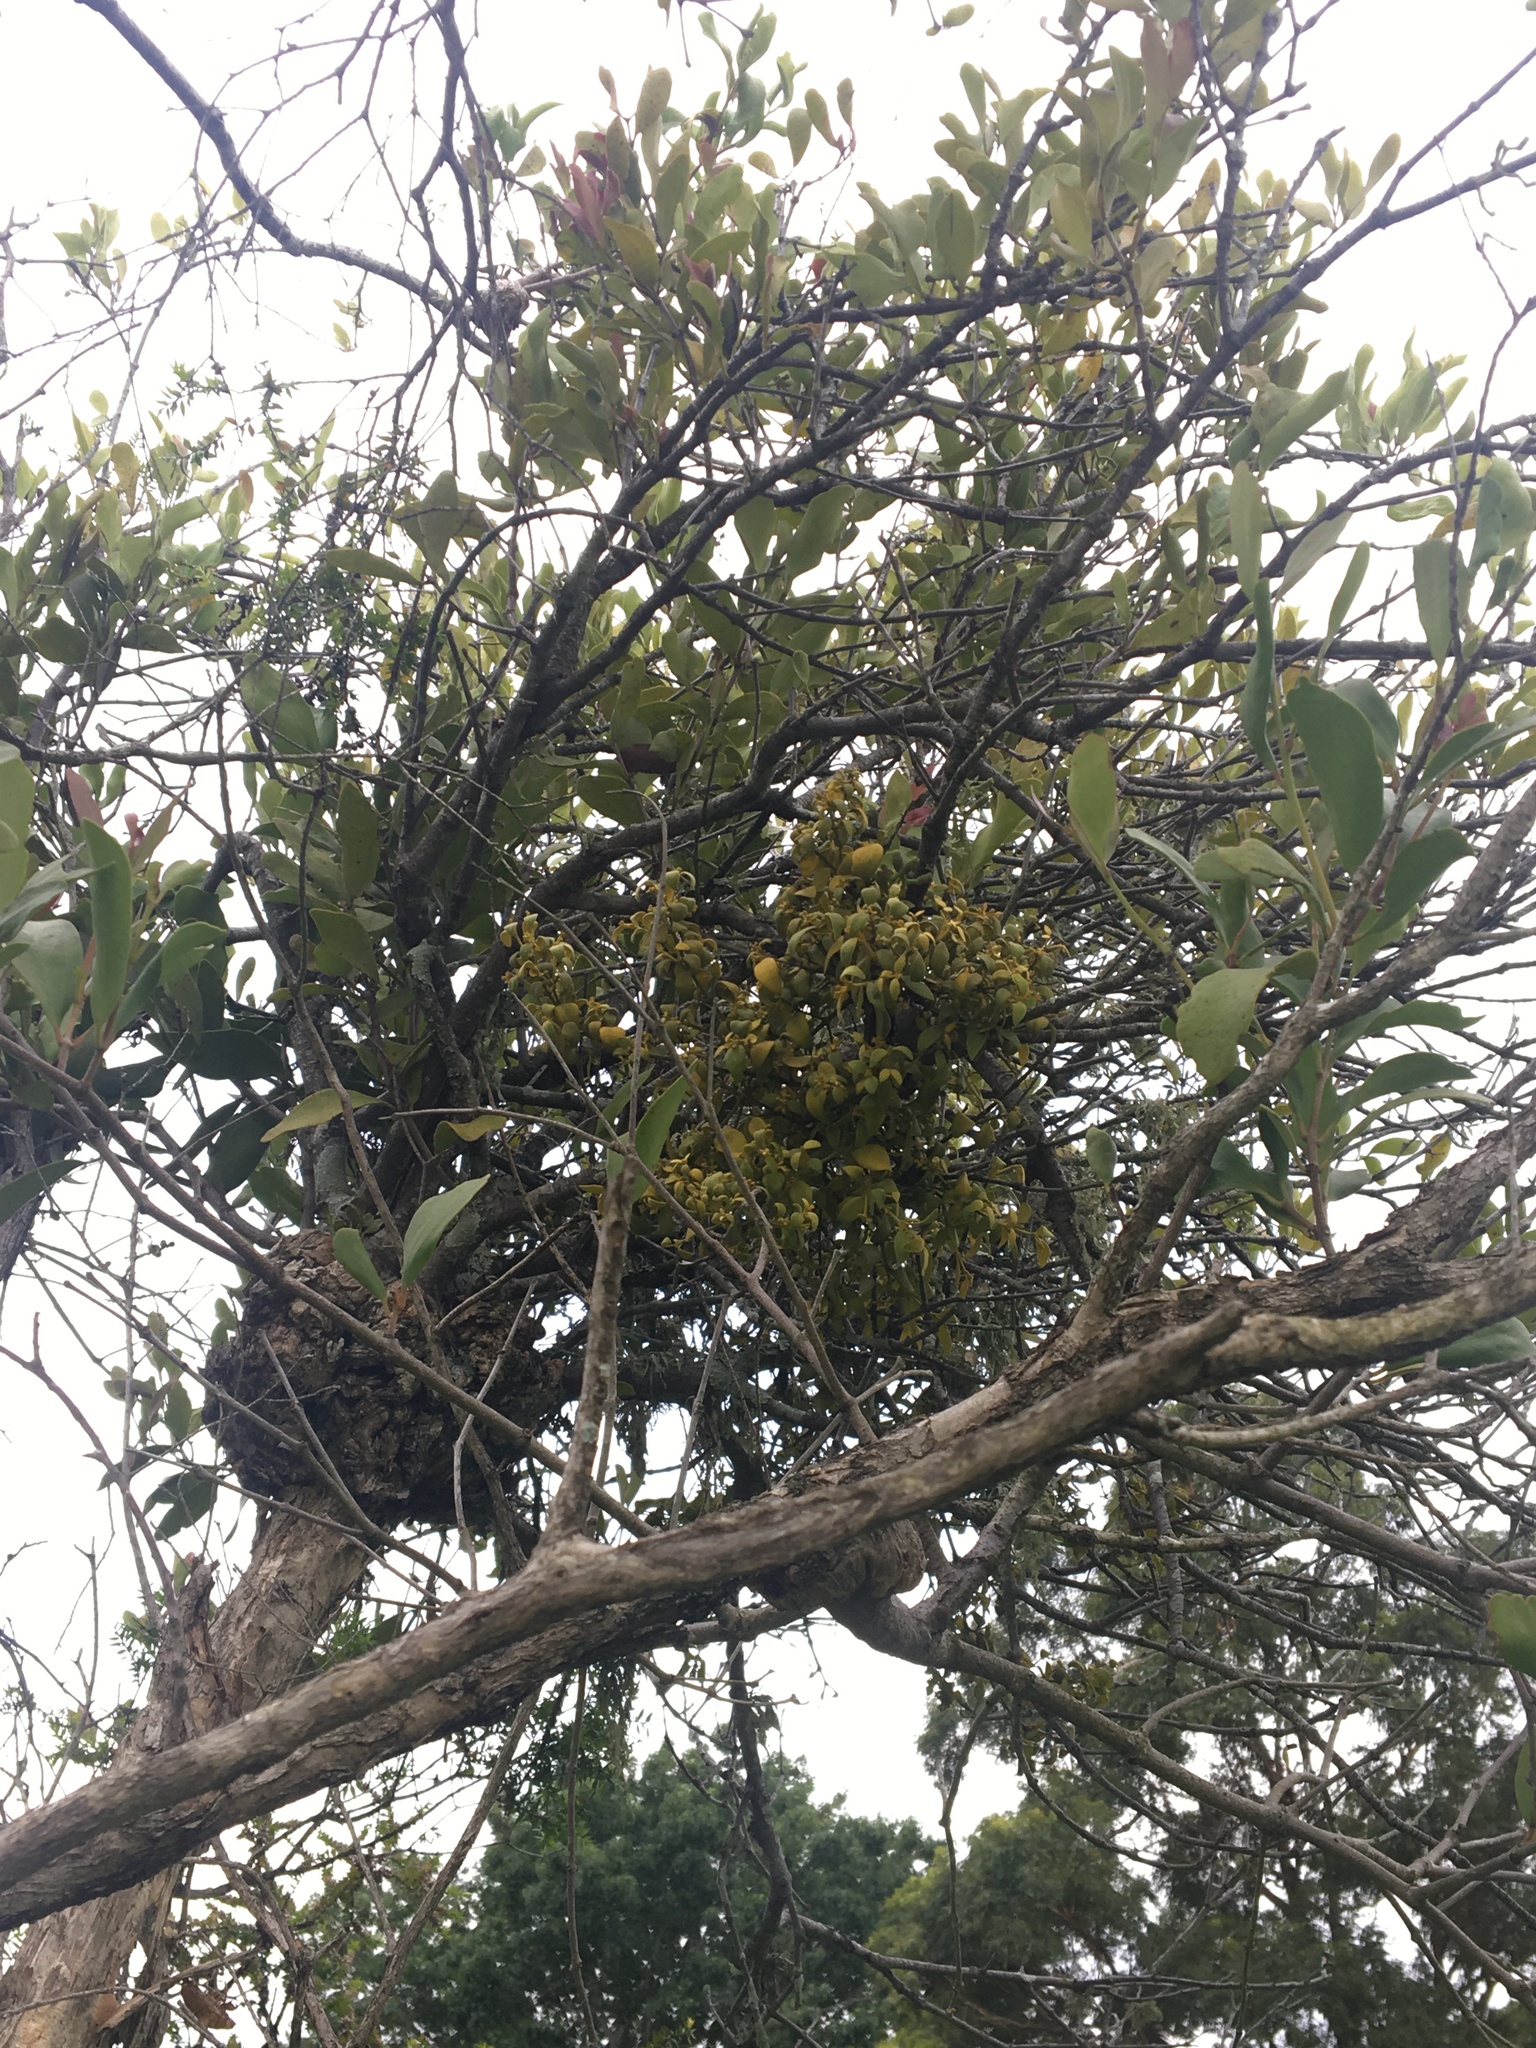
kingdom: Plantae
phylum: Tracheophyta
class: Magnoliopsida
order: Santalales
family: Viscaceae
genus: Notothixos
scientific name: Notothixos subaureus
